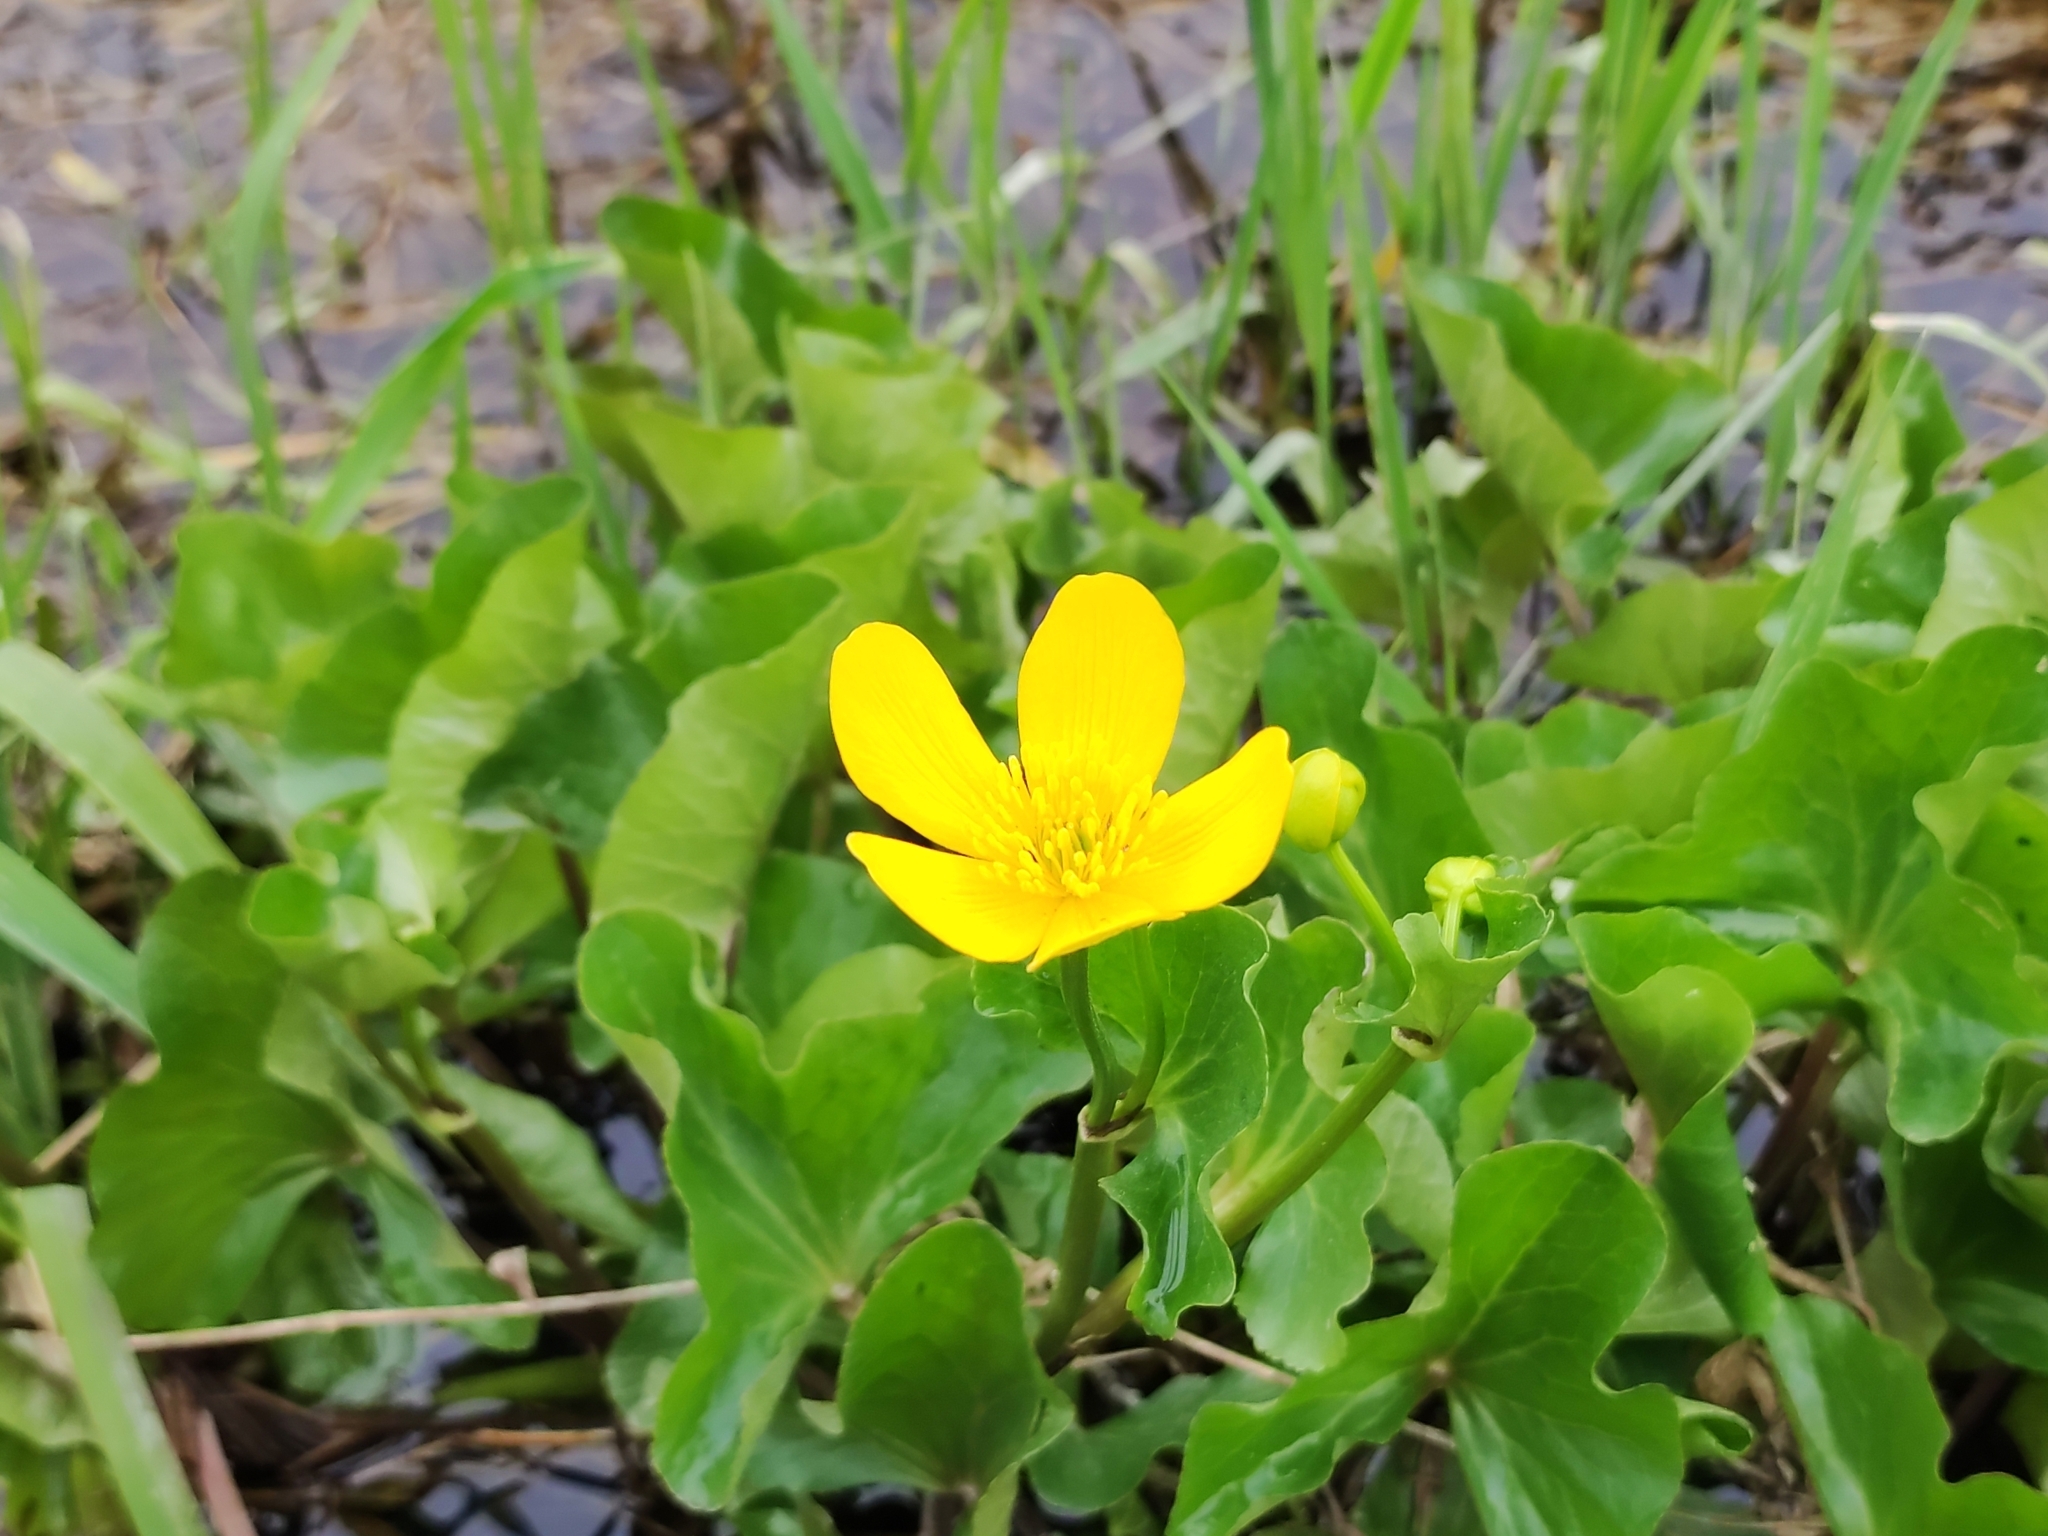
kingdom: Plantae
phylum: Tracheophyta
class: Magnoliopsida
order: Ranunculales
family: Ranunculaceae
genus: Caltha
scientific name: Caltha palustris
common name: Marsh marigold
